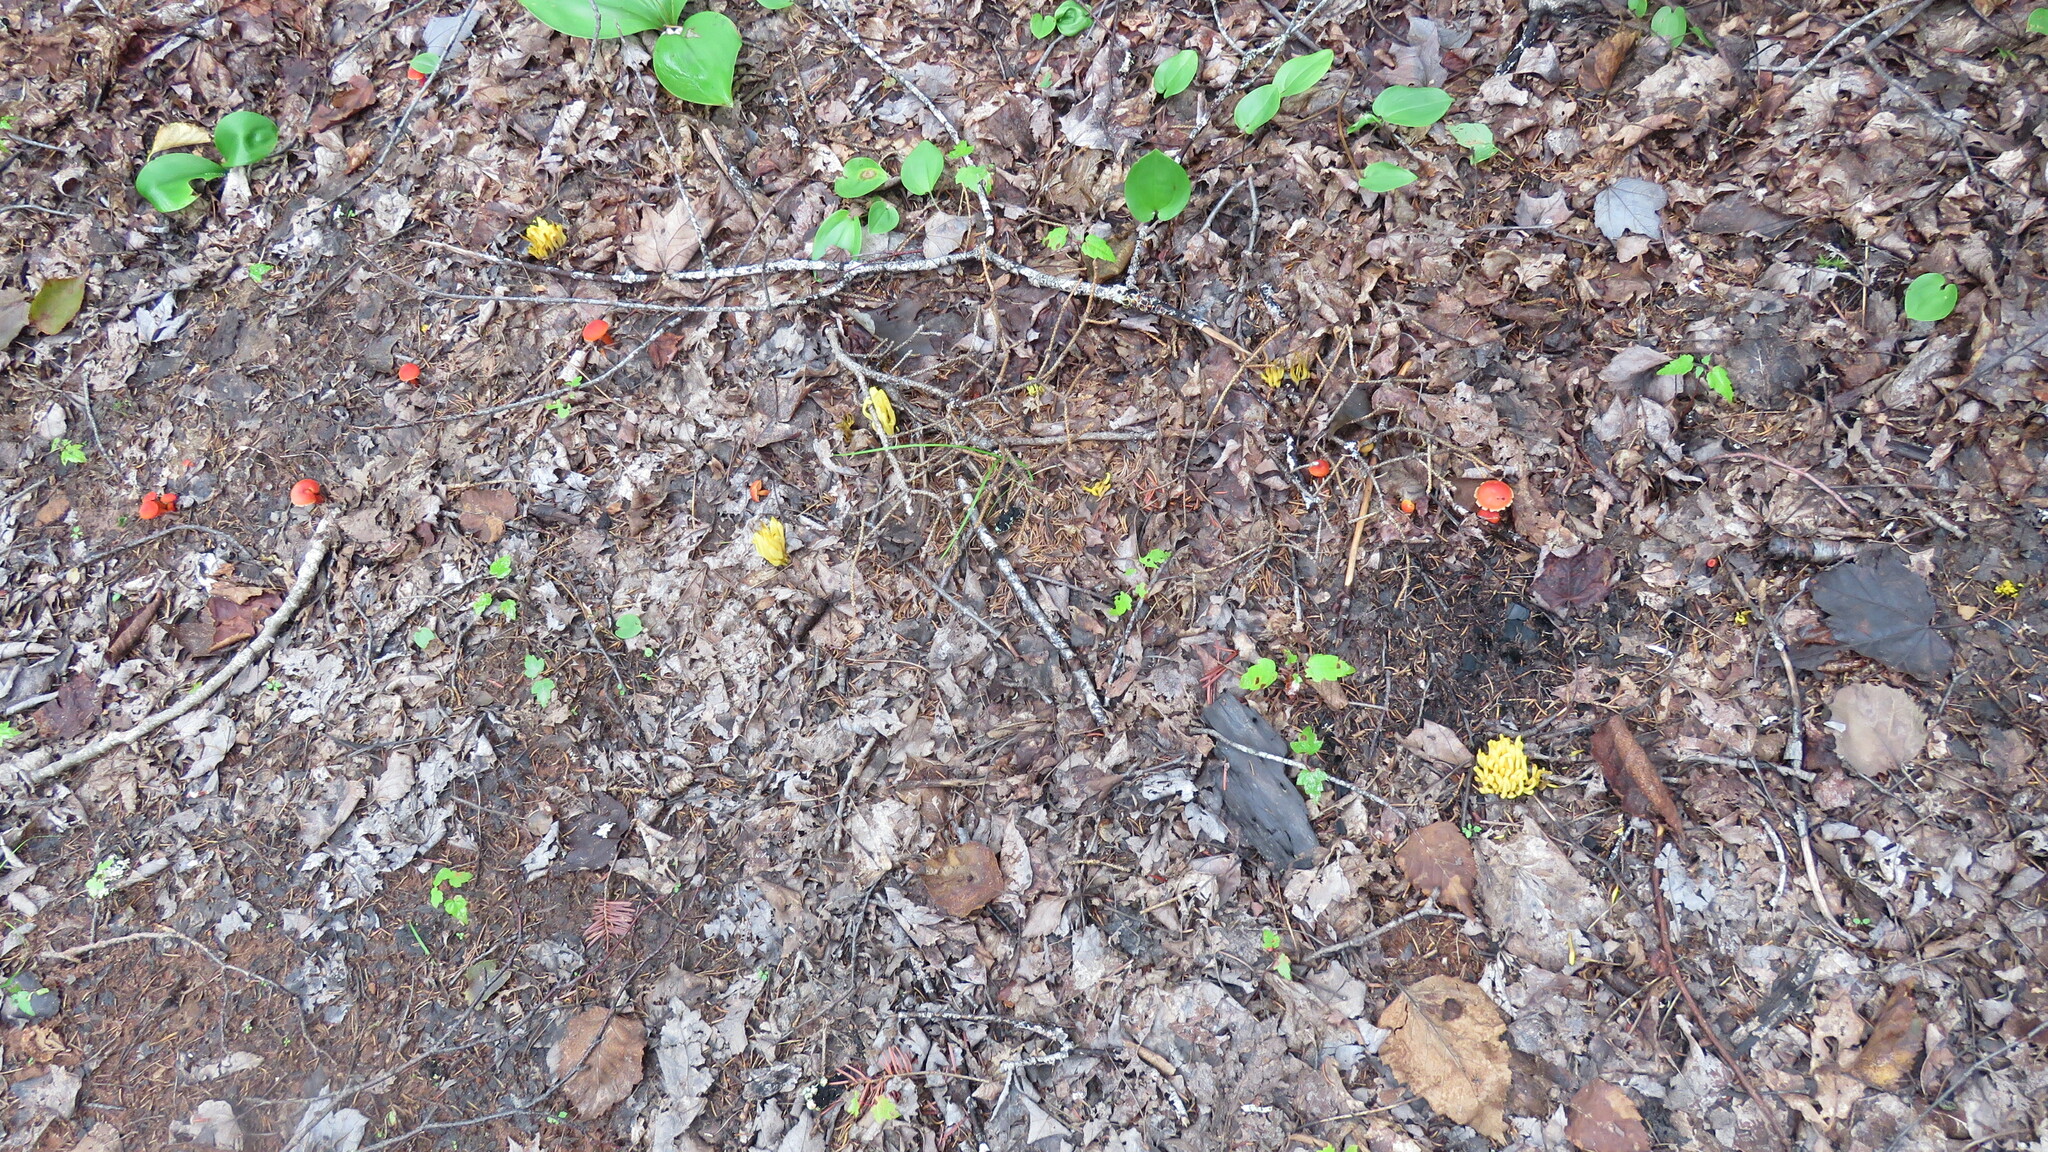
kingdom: Fungi
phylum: Basidiomycota
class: Agaricomycetes
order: Agaricales
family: Clavariaceae
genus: Clavulinopsis
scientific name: Clavulinopsis fusiformis
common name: Golden spindles
